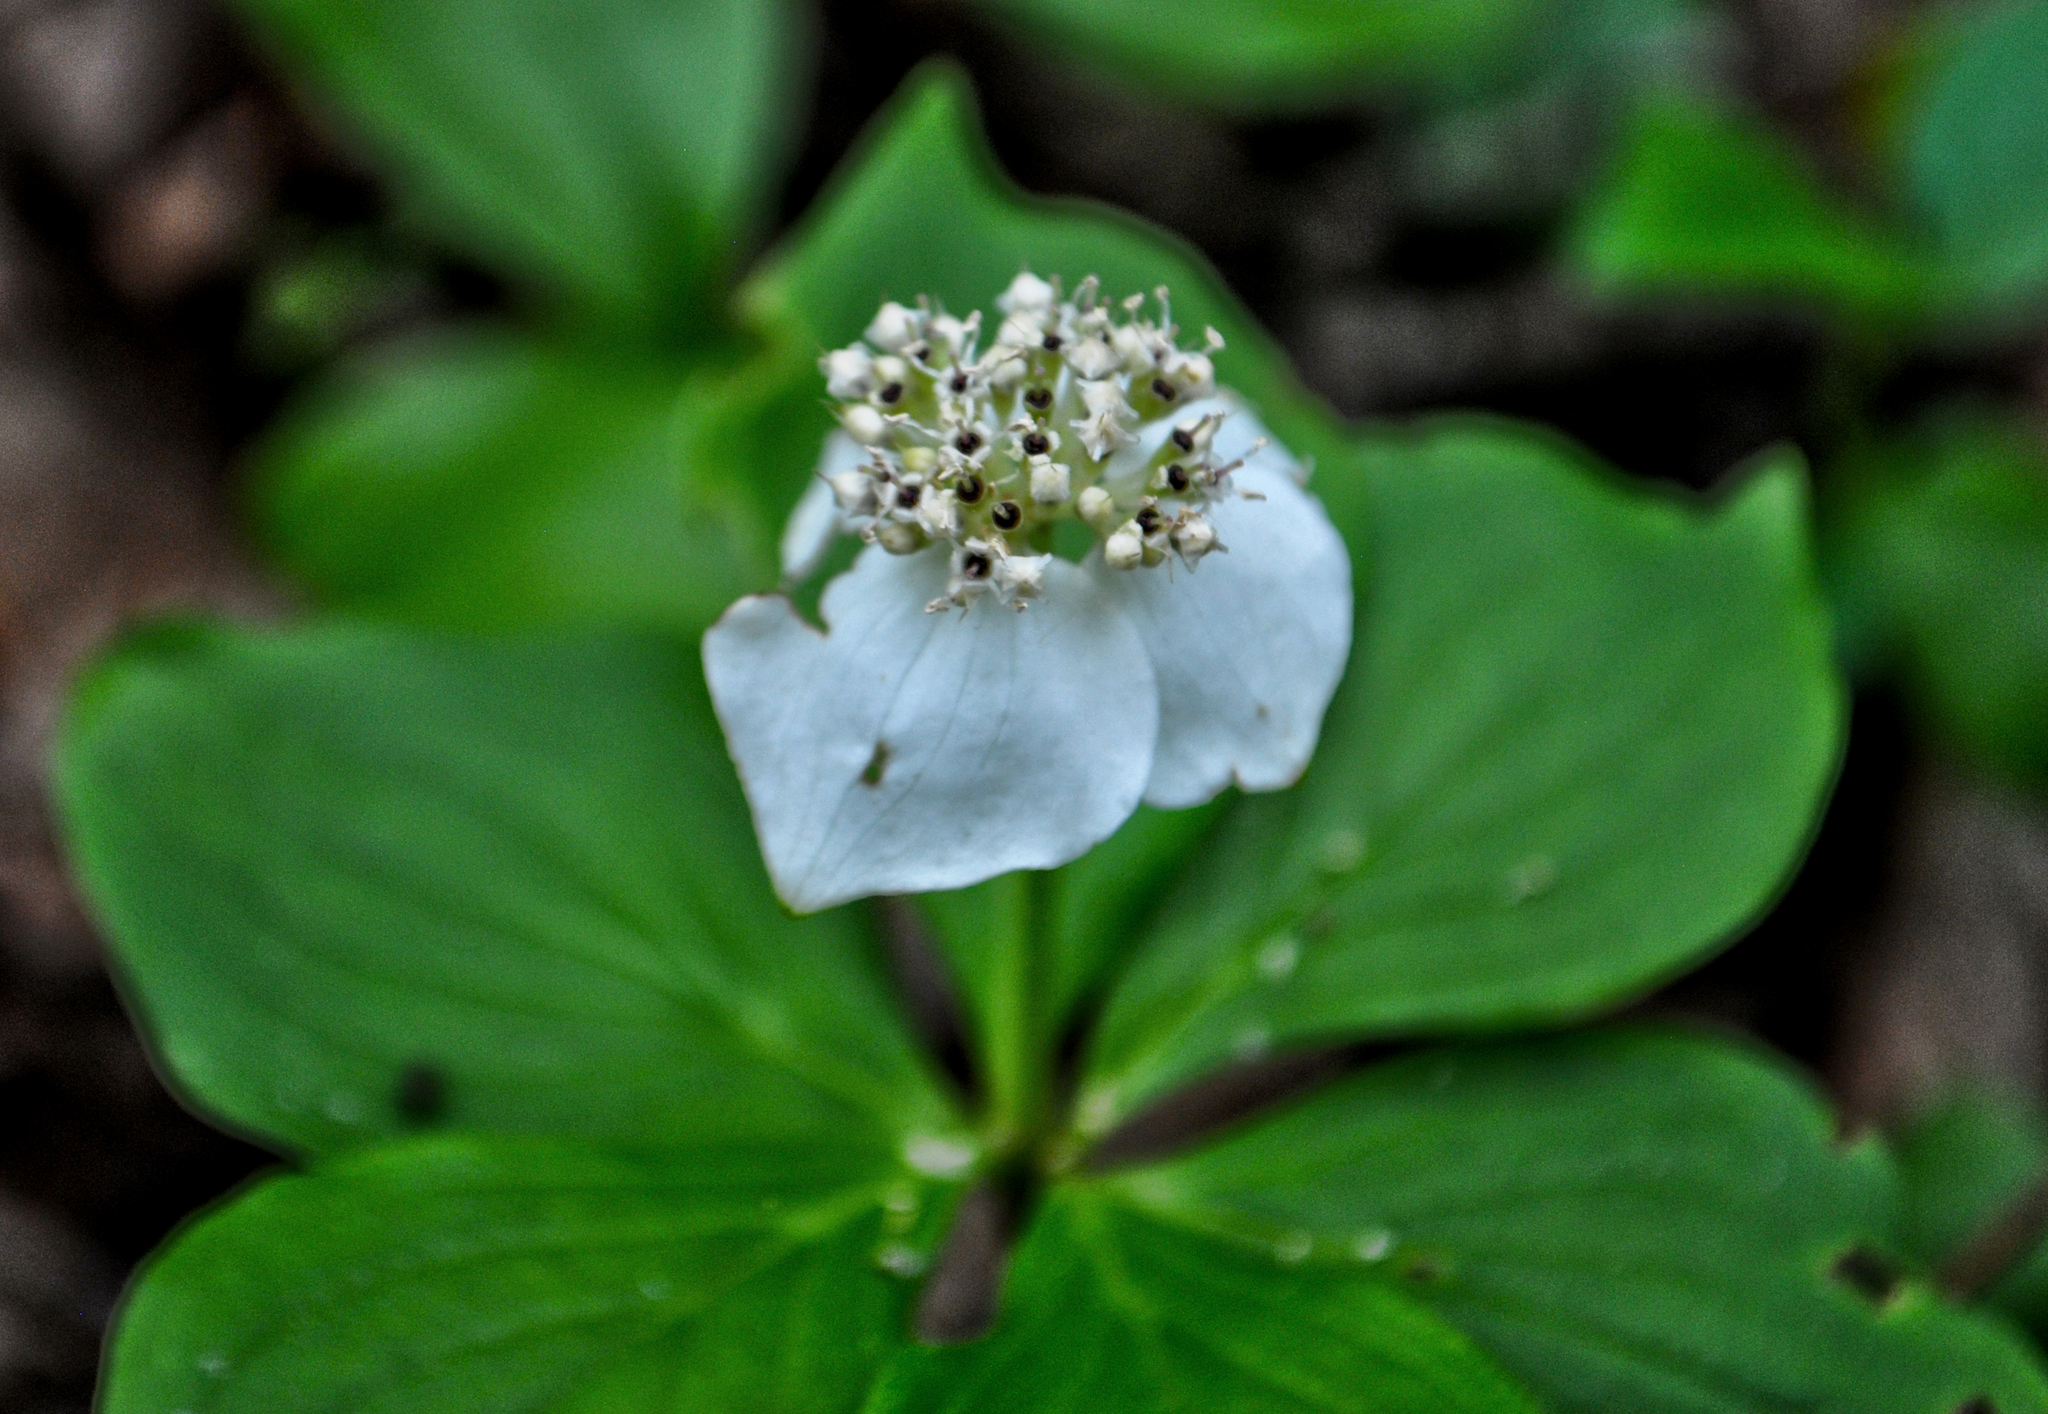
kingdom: Plantae
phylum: Tracheophyta
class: Magnoliopsida
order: Cornales
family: Cornaceae
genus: Cornus
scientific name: Cornus canadensis
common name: Creeping dogwood
